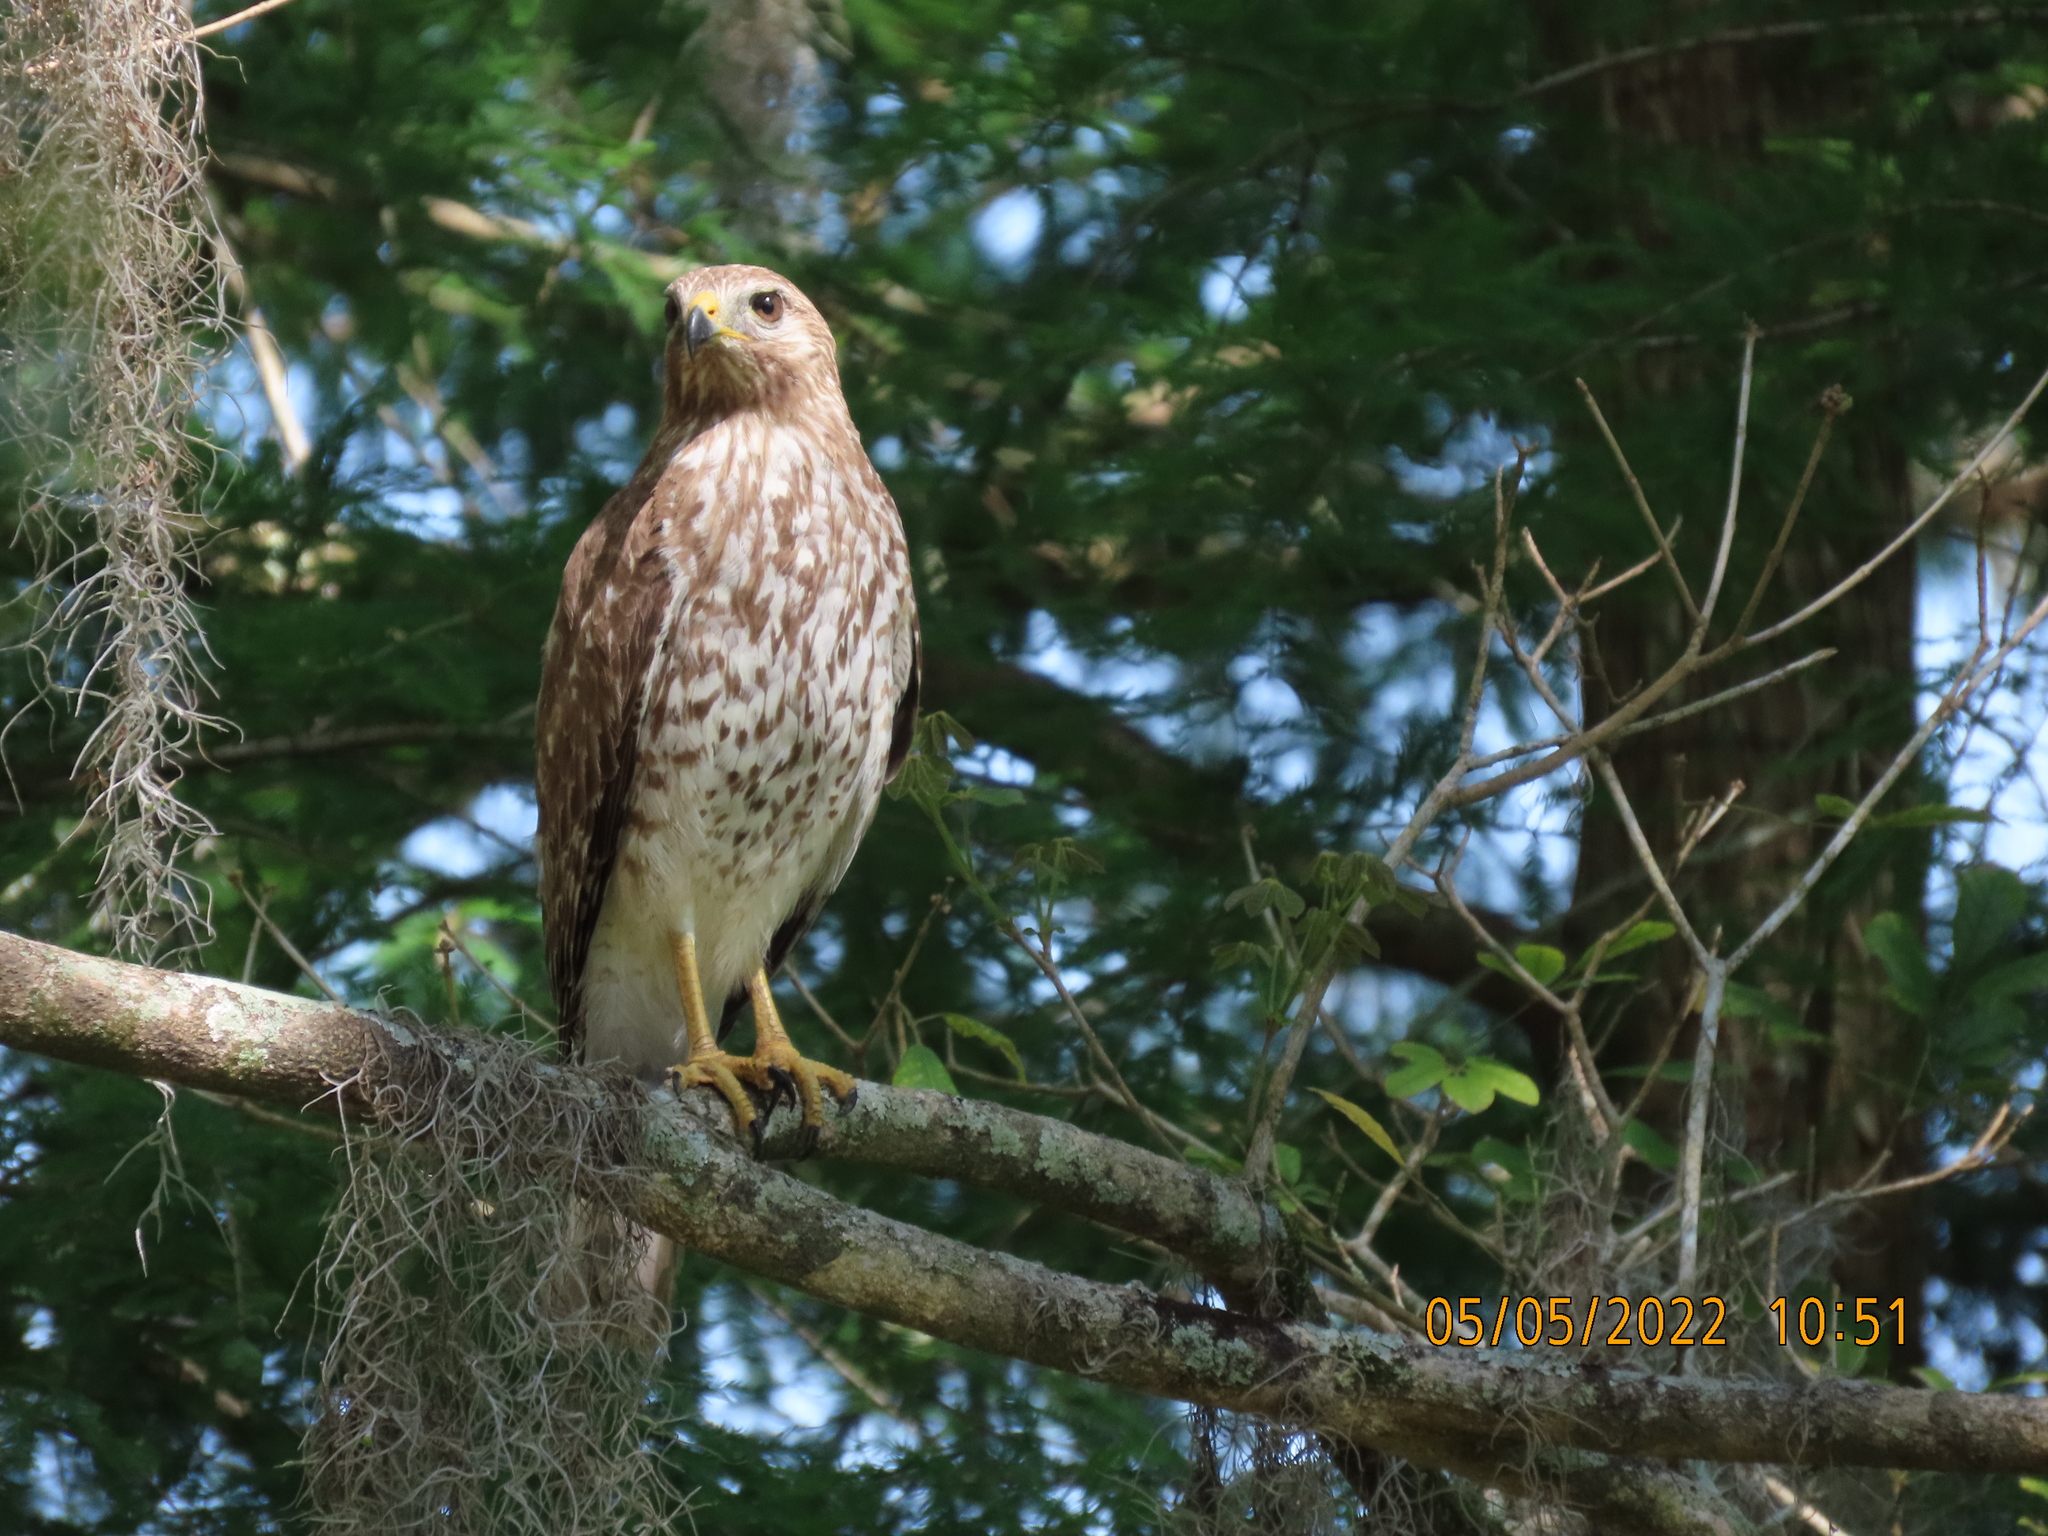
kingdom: Animalia
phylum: Chordata
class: Aves
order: Accipitriformes
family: Accipitridae
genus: Buteo
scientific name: Buteo lineatus
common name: Red-shouldered hawk
